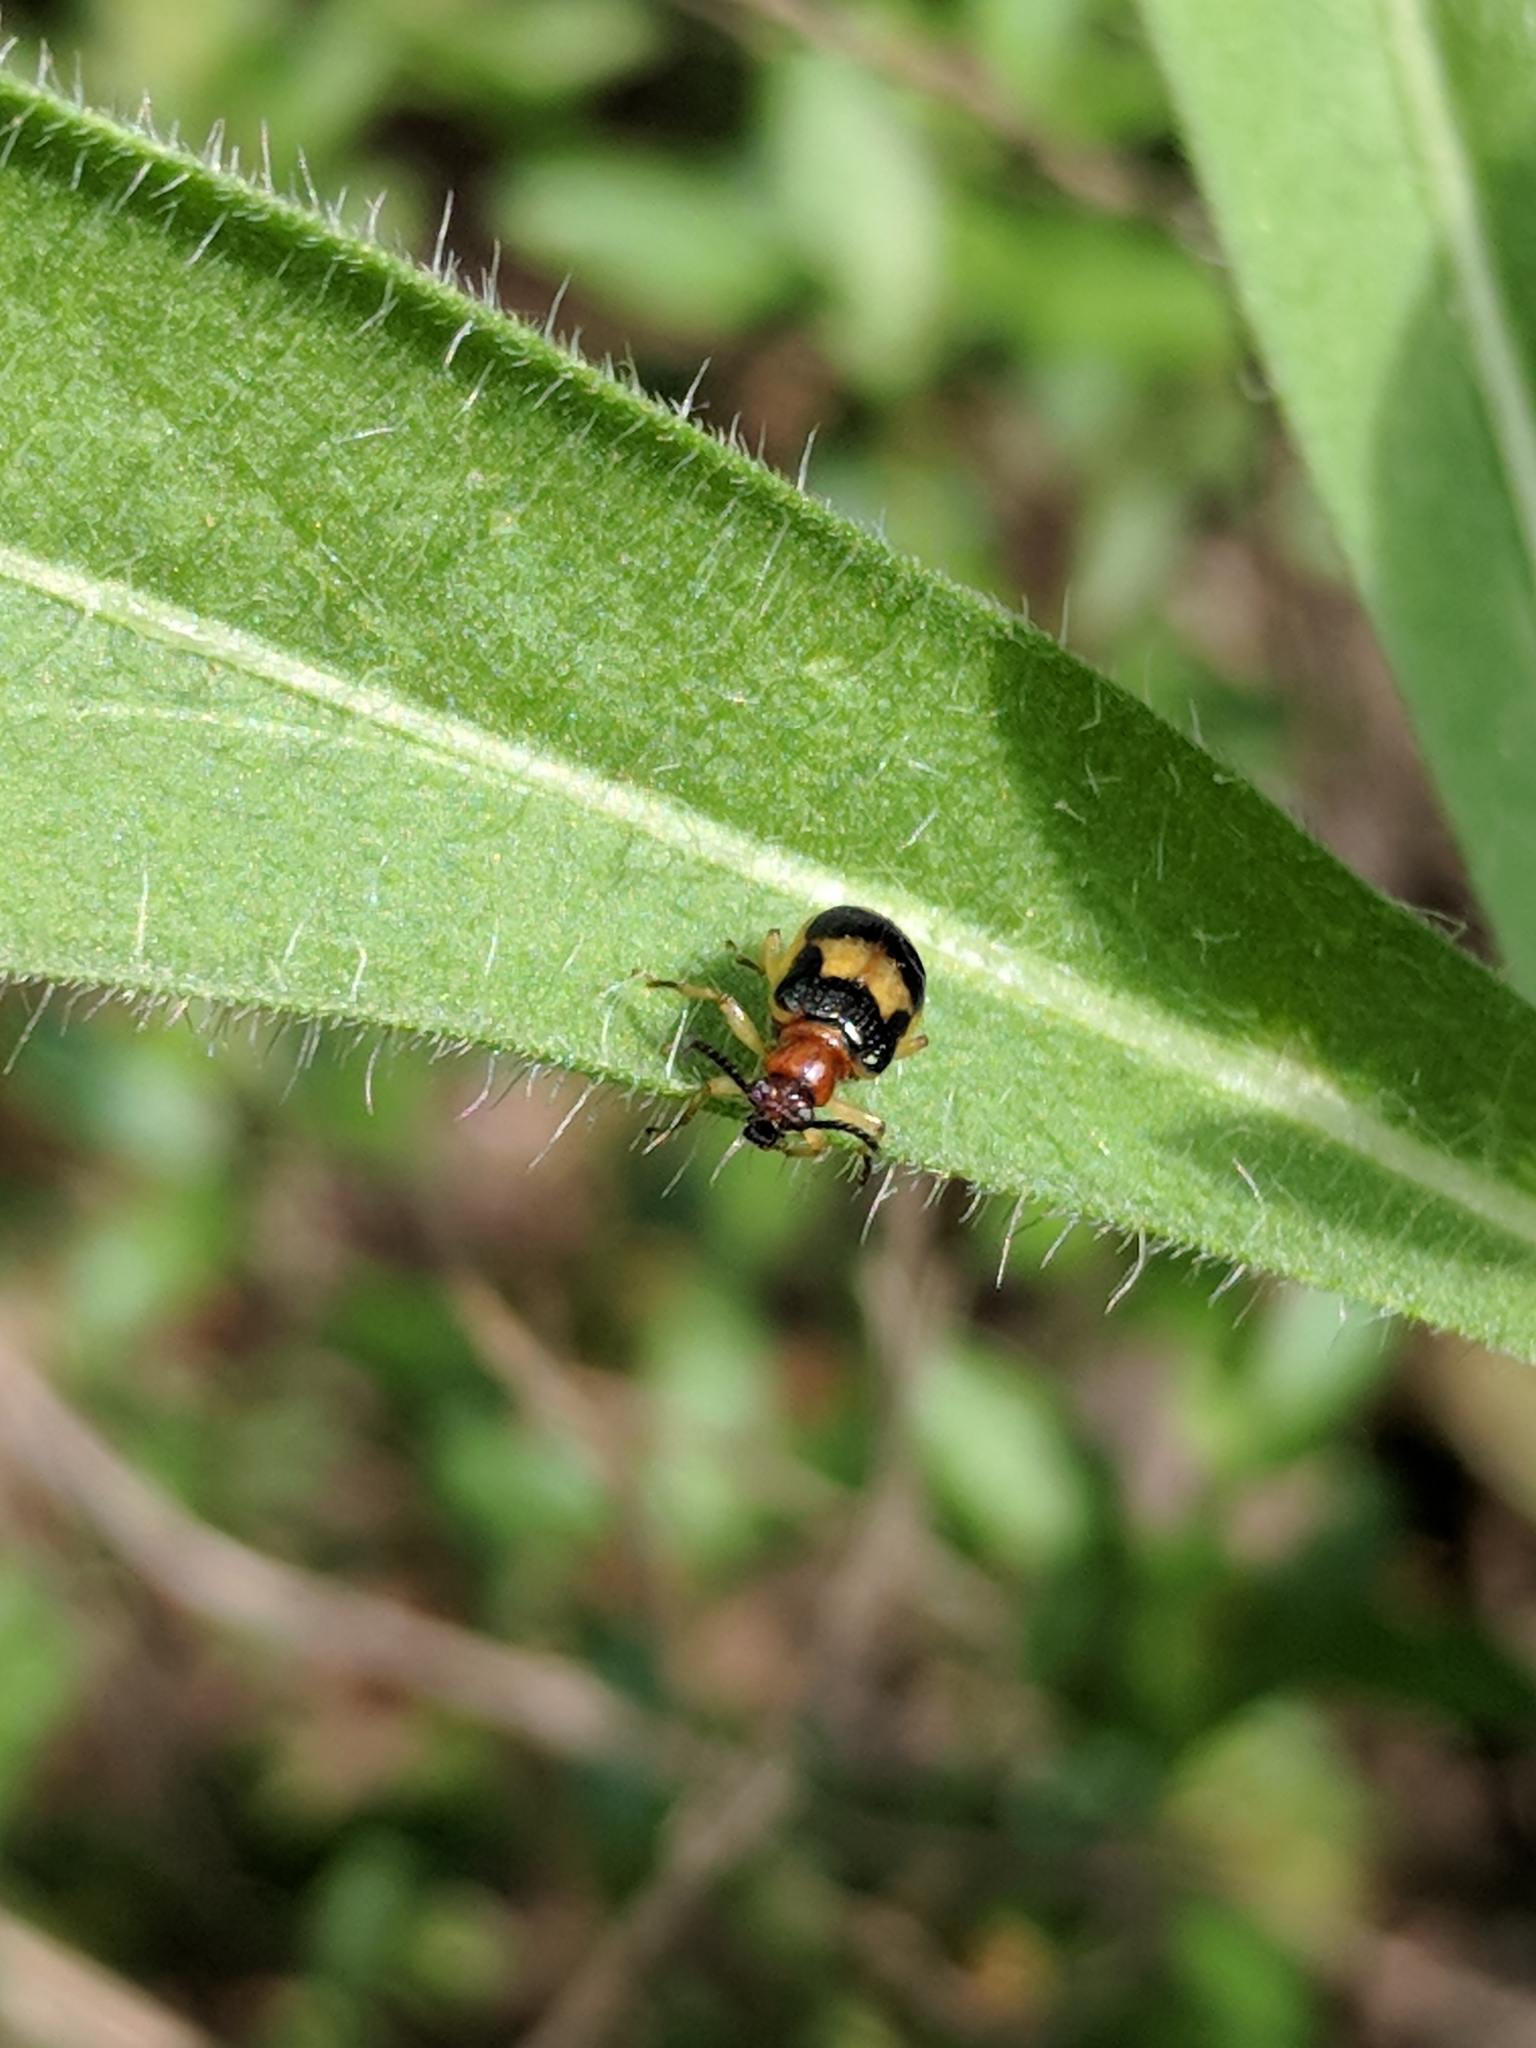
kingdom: Animalia
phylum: Arthropoda
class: Insecta
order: Coleoptera
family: Chrysomelidae
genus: Lema
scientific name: Lema opulenta
